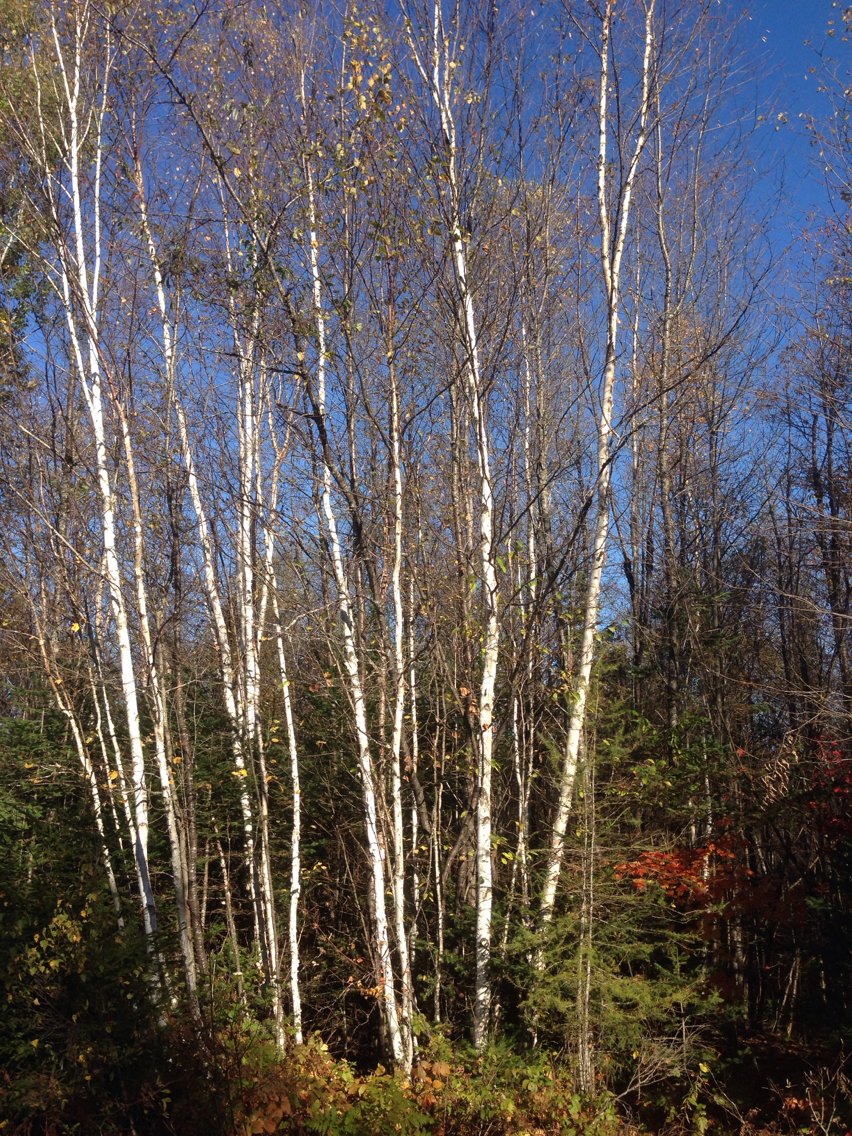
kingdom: Plantae
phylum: Tracheophyta
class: Magnoliopsida
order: Fagales
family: Betulaceae
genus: Betula
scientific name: Betula papyrifera
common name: Paper birch
